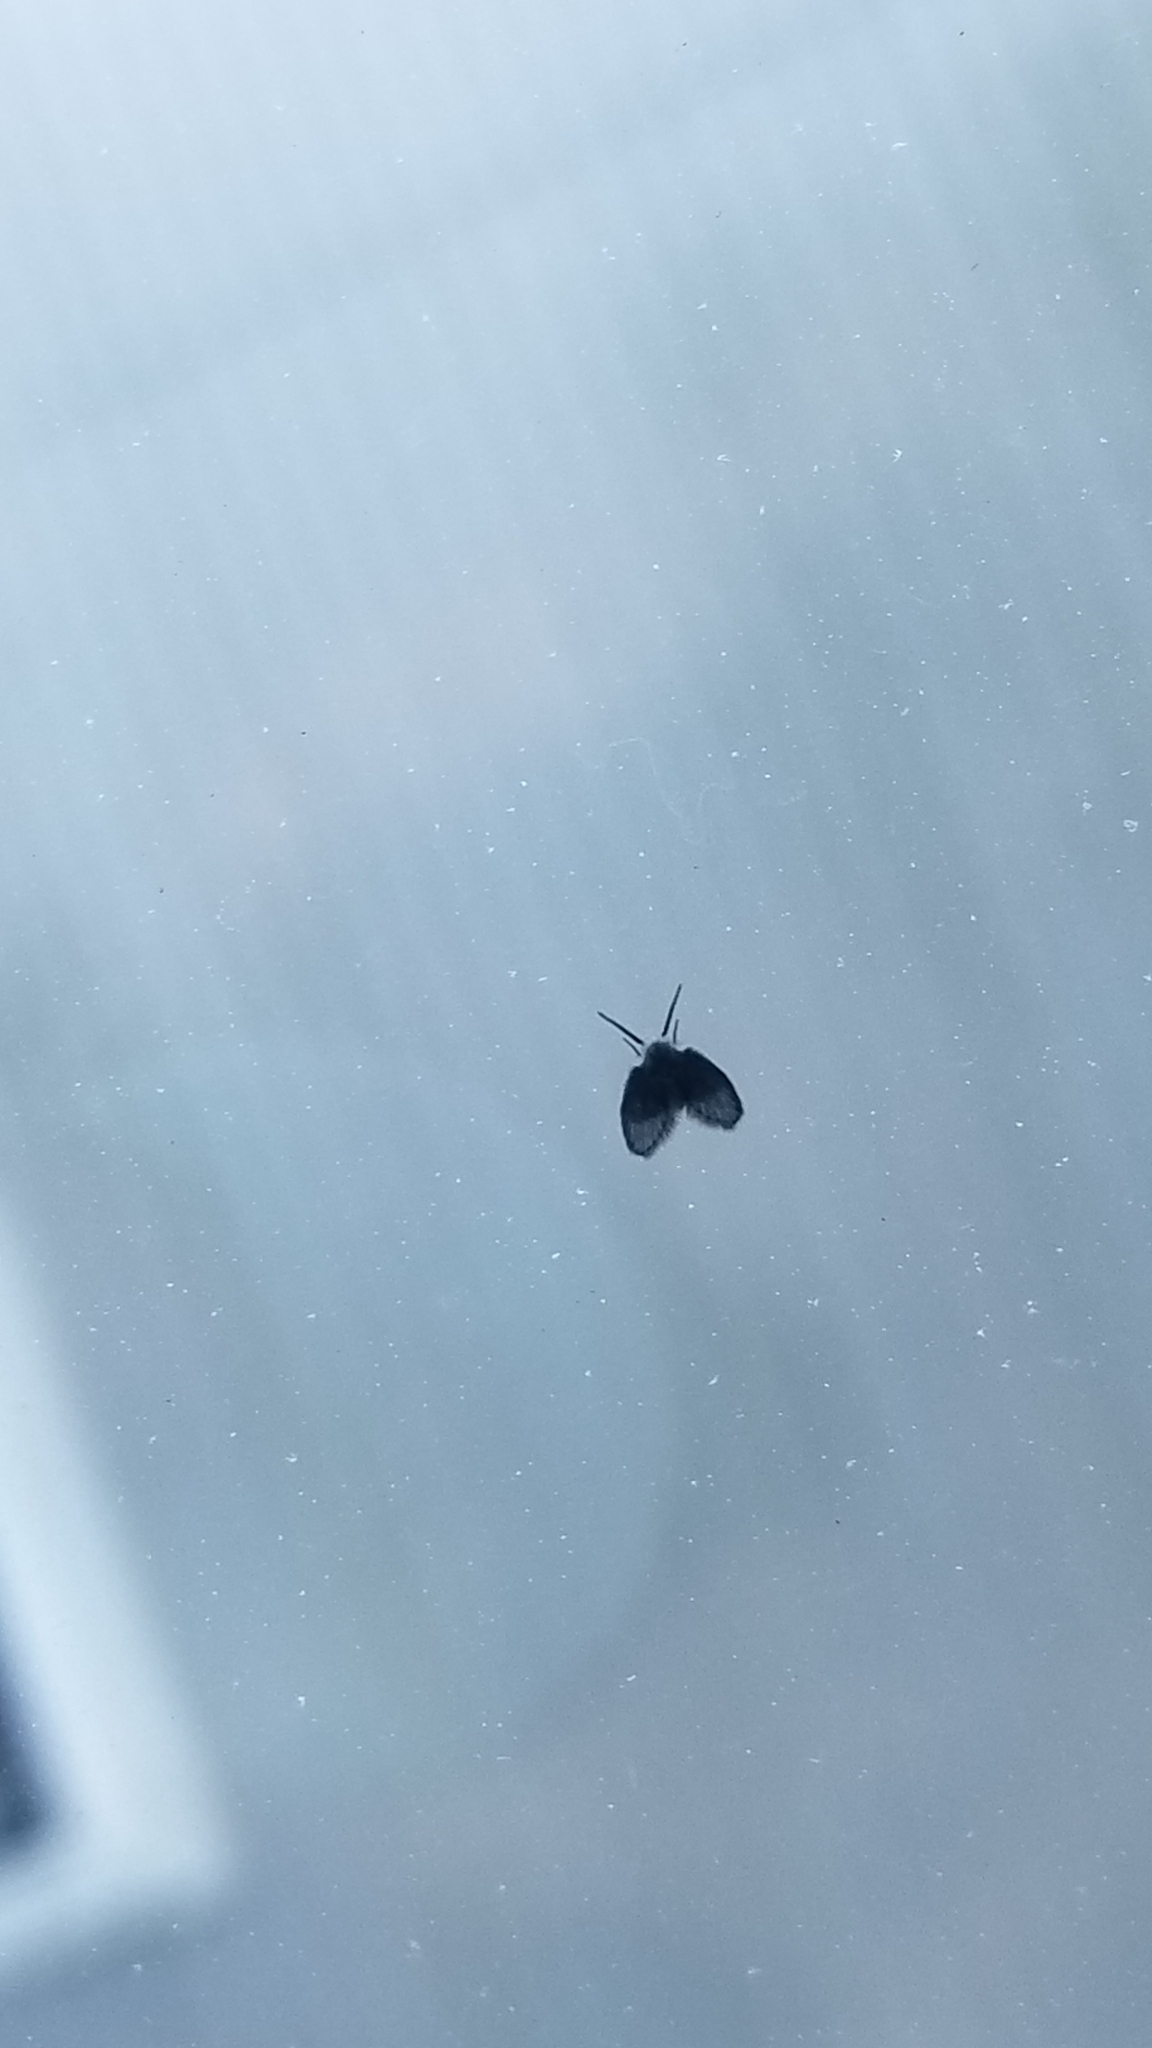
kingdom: Animalia
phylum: Arthropoda
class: Insecta
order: Diptera
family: Psychodidae
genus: Clogmia
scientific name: Clogmia albipunctatus
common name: White-spotted moth fly
